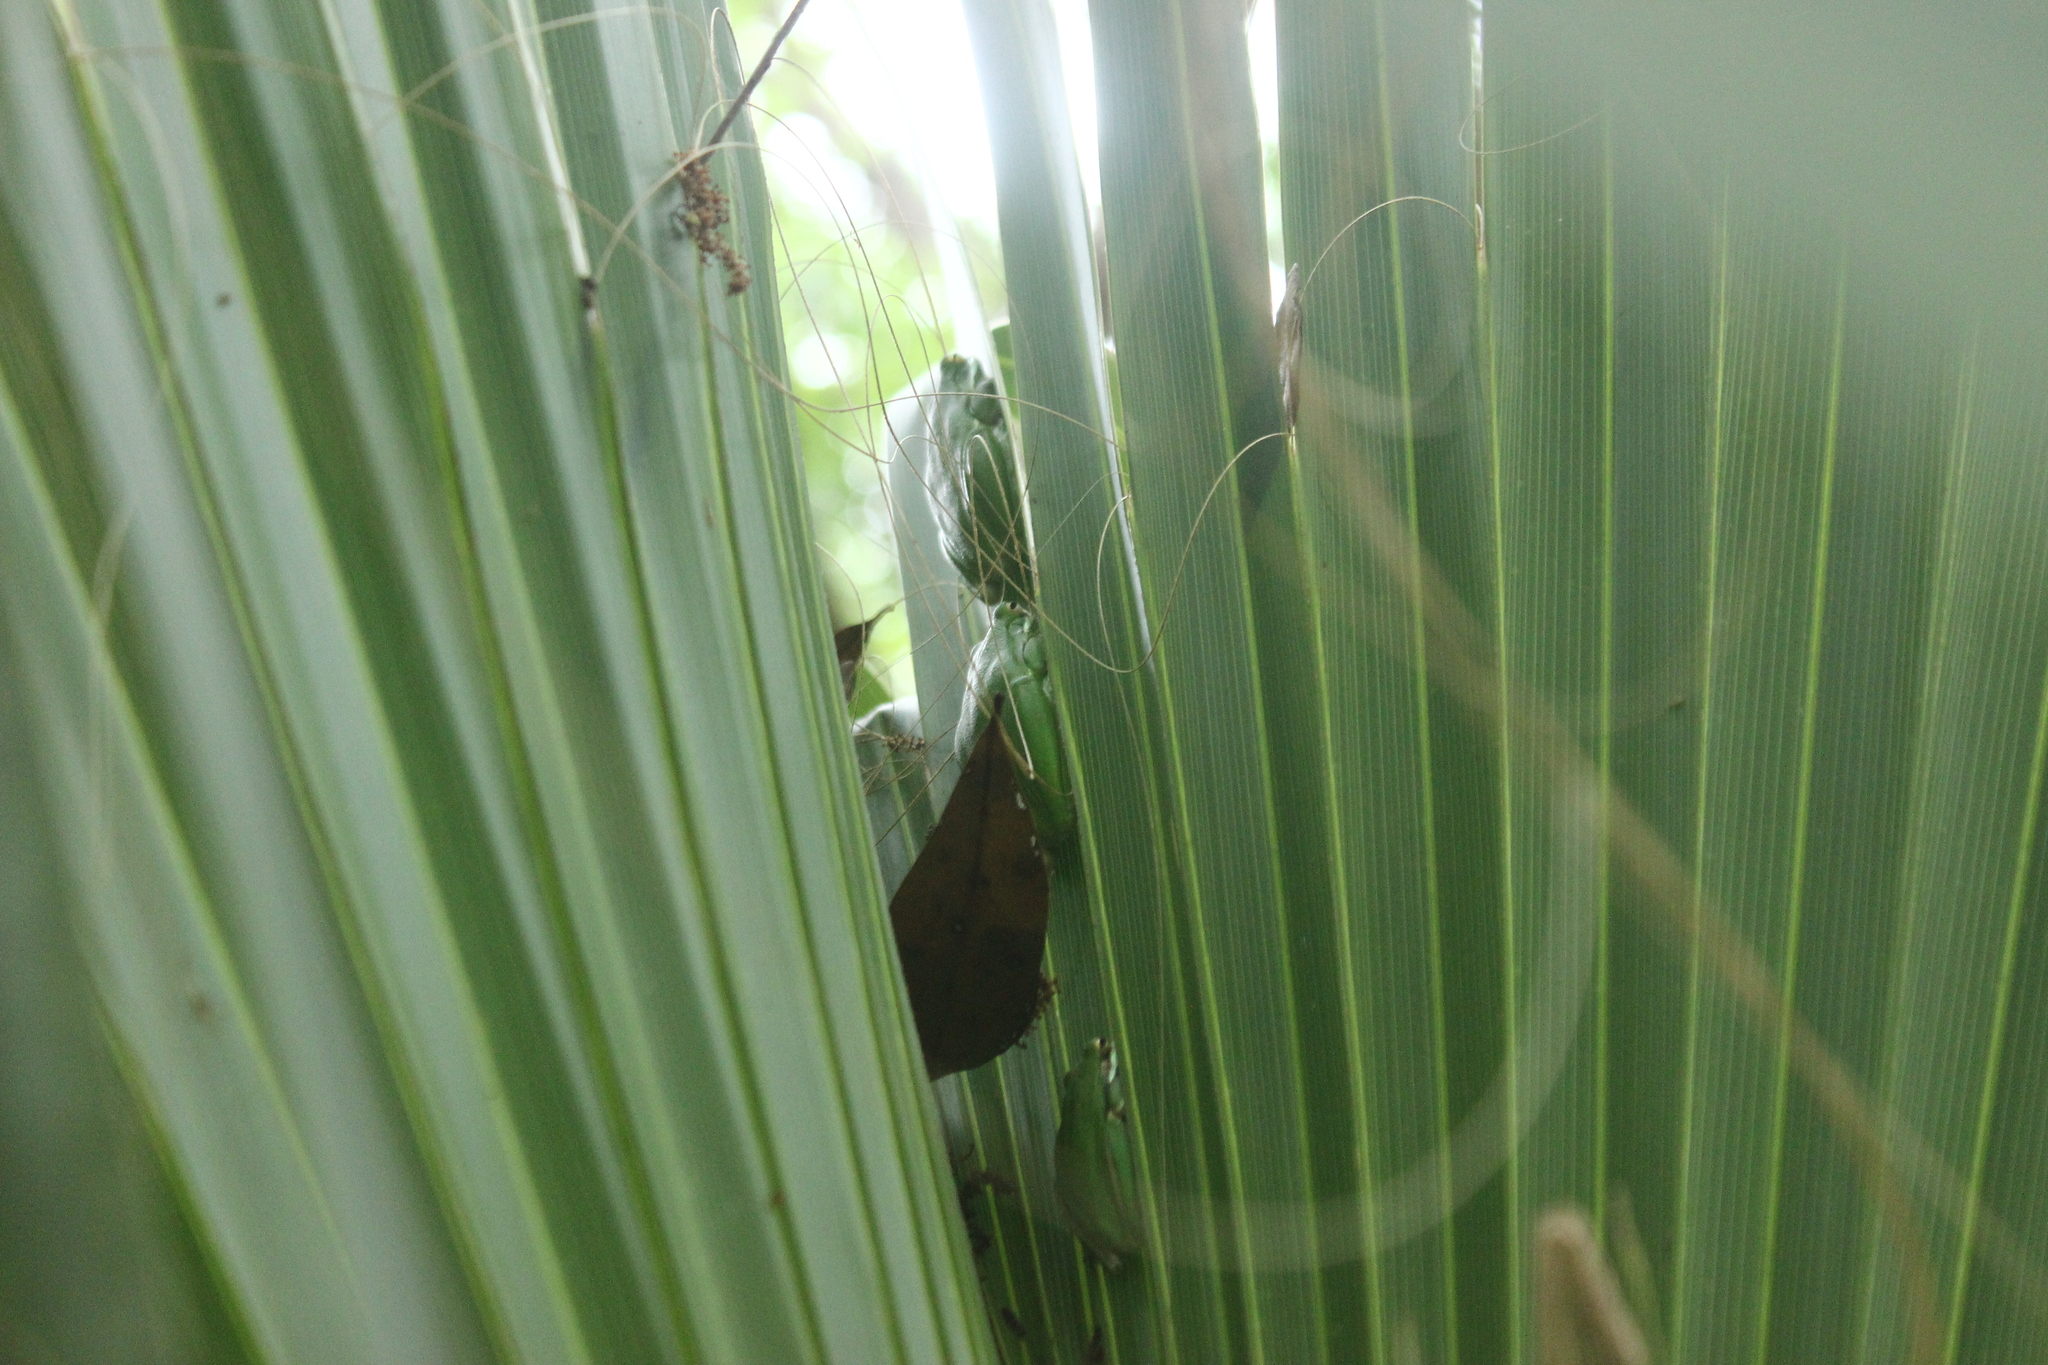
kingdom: Animalia
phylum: Chordata
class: Amphibia
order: Anura
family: Hylidae
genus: Dryophytes
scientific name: Dryophytes cinereus
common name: Green treefrog
